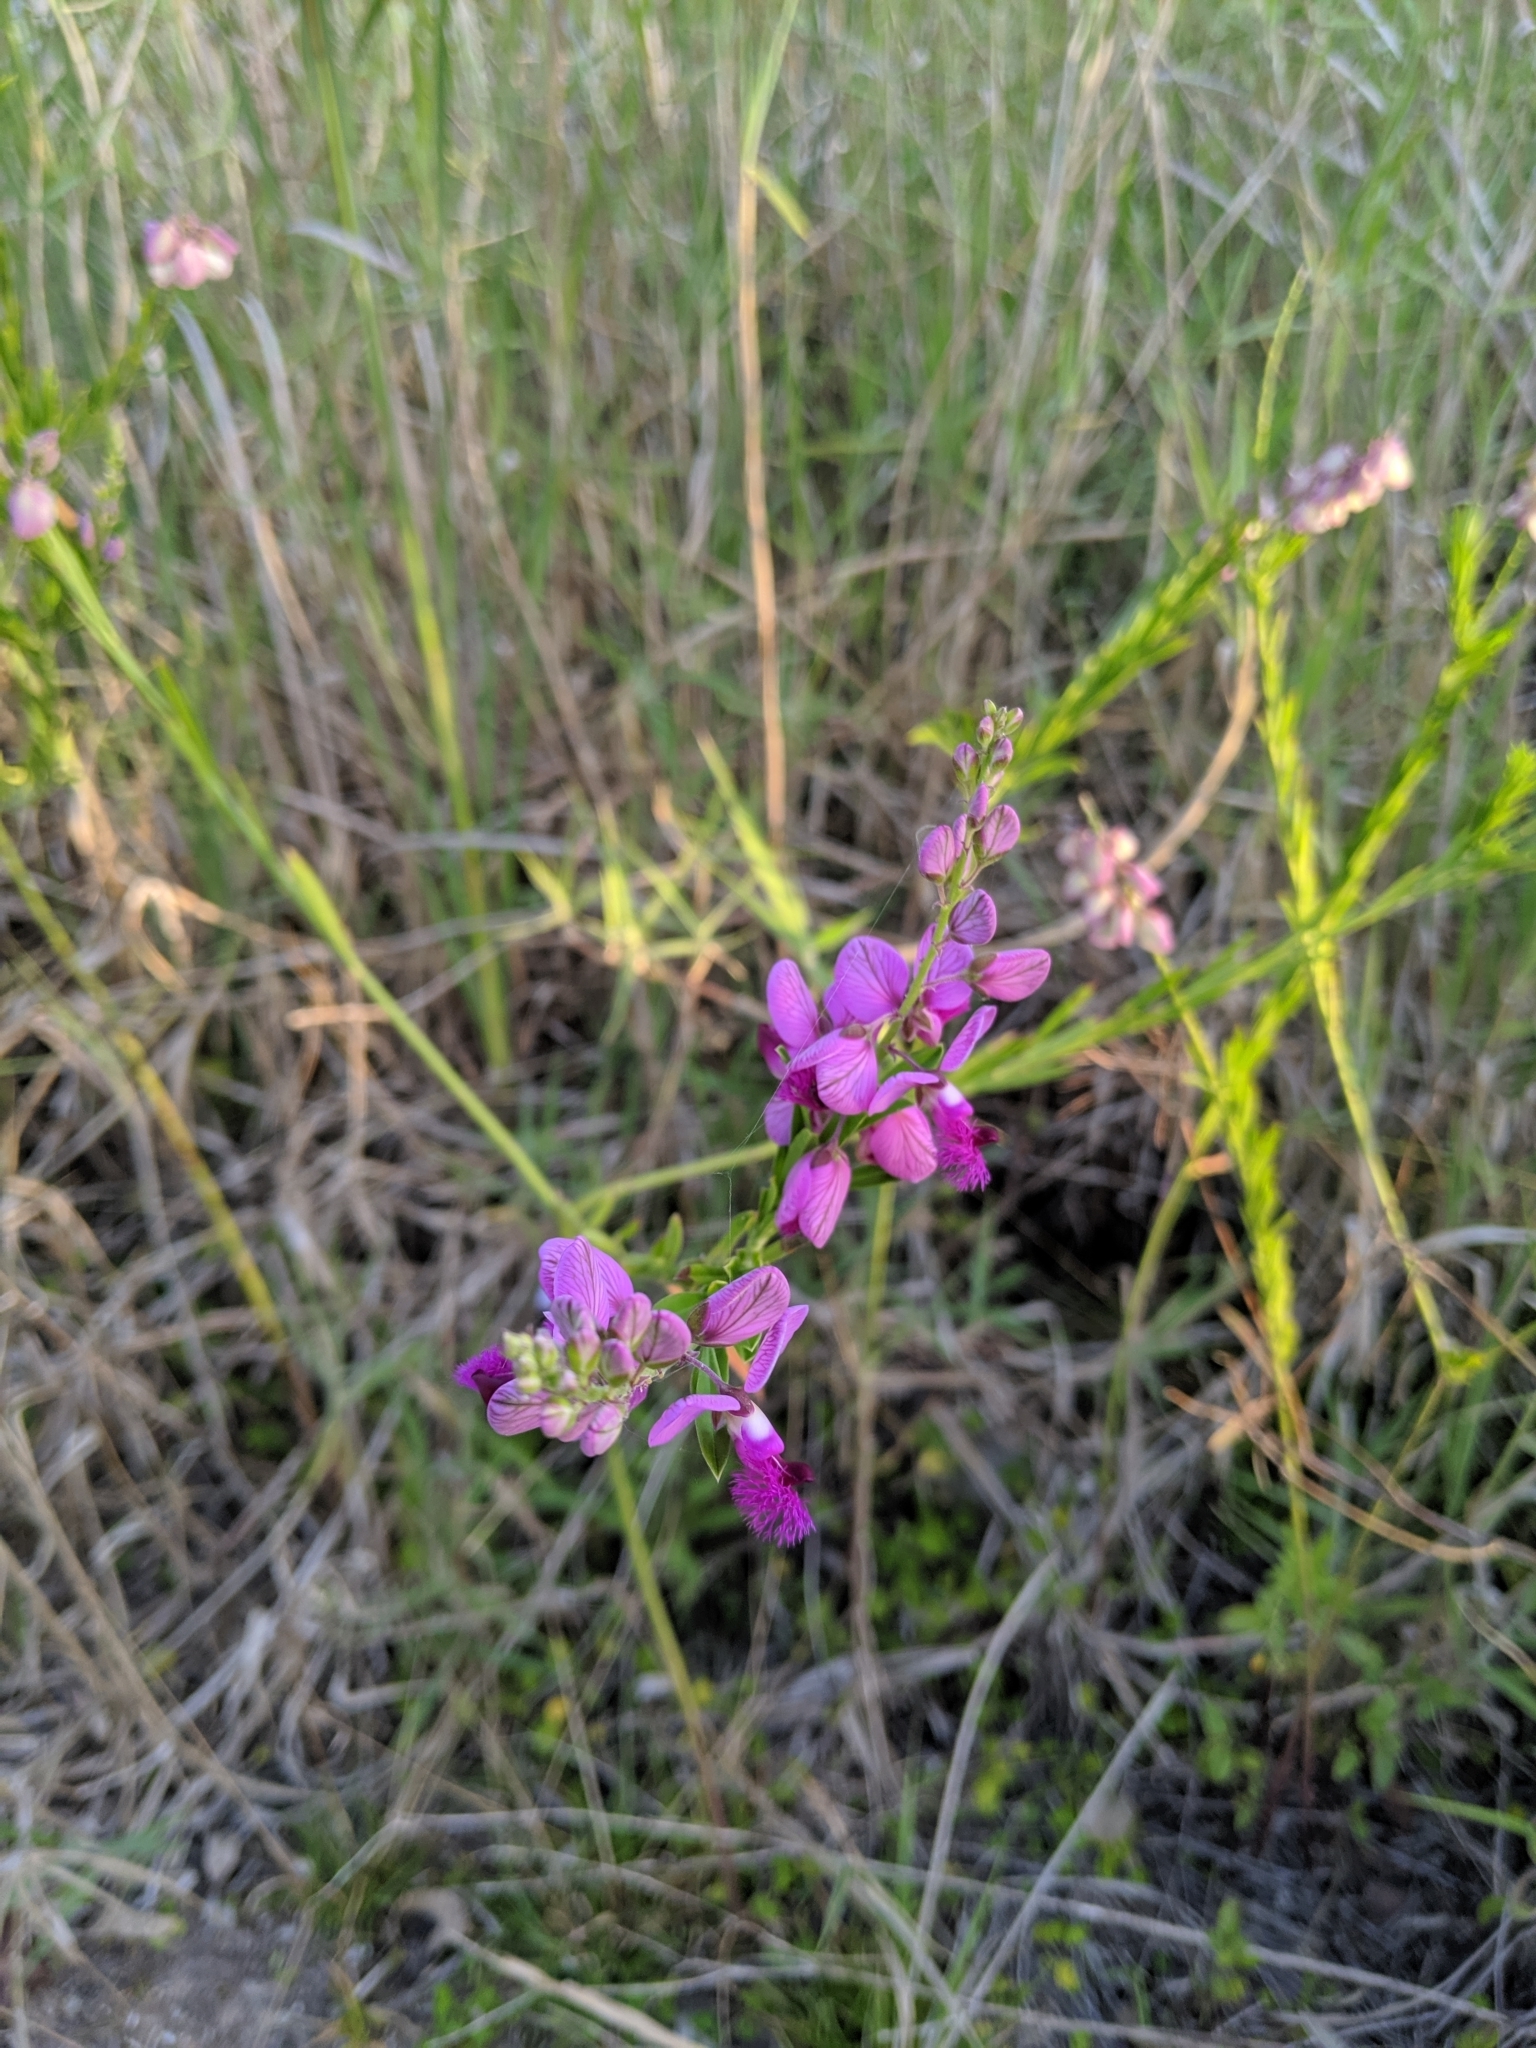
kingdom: Plantae
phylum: Tracheophyta
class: Magnoliopsida
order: Fabales
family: Polygalaceae
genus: Polygala
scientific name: Polygala virgata
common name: Milkwort
